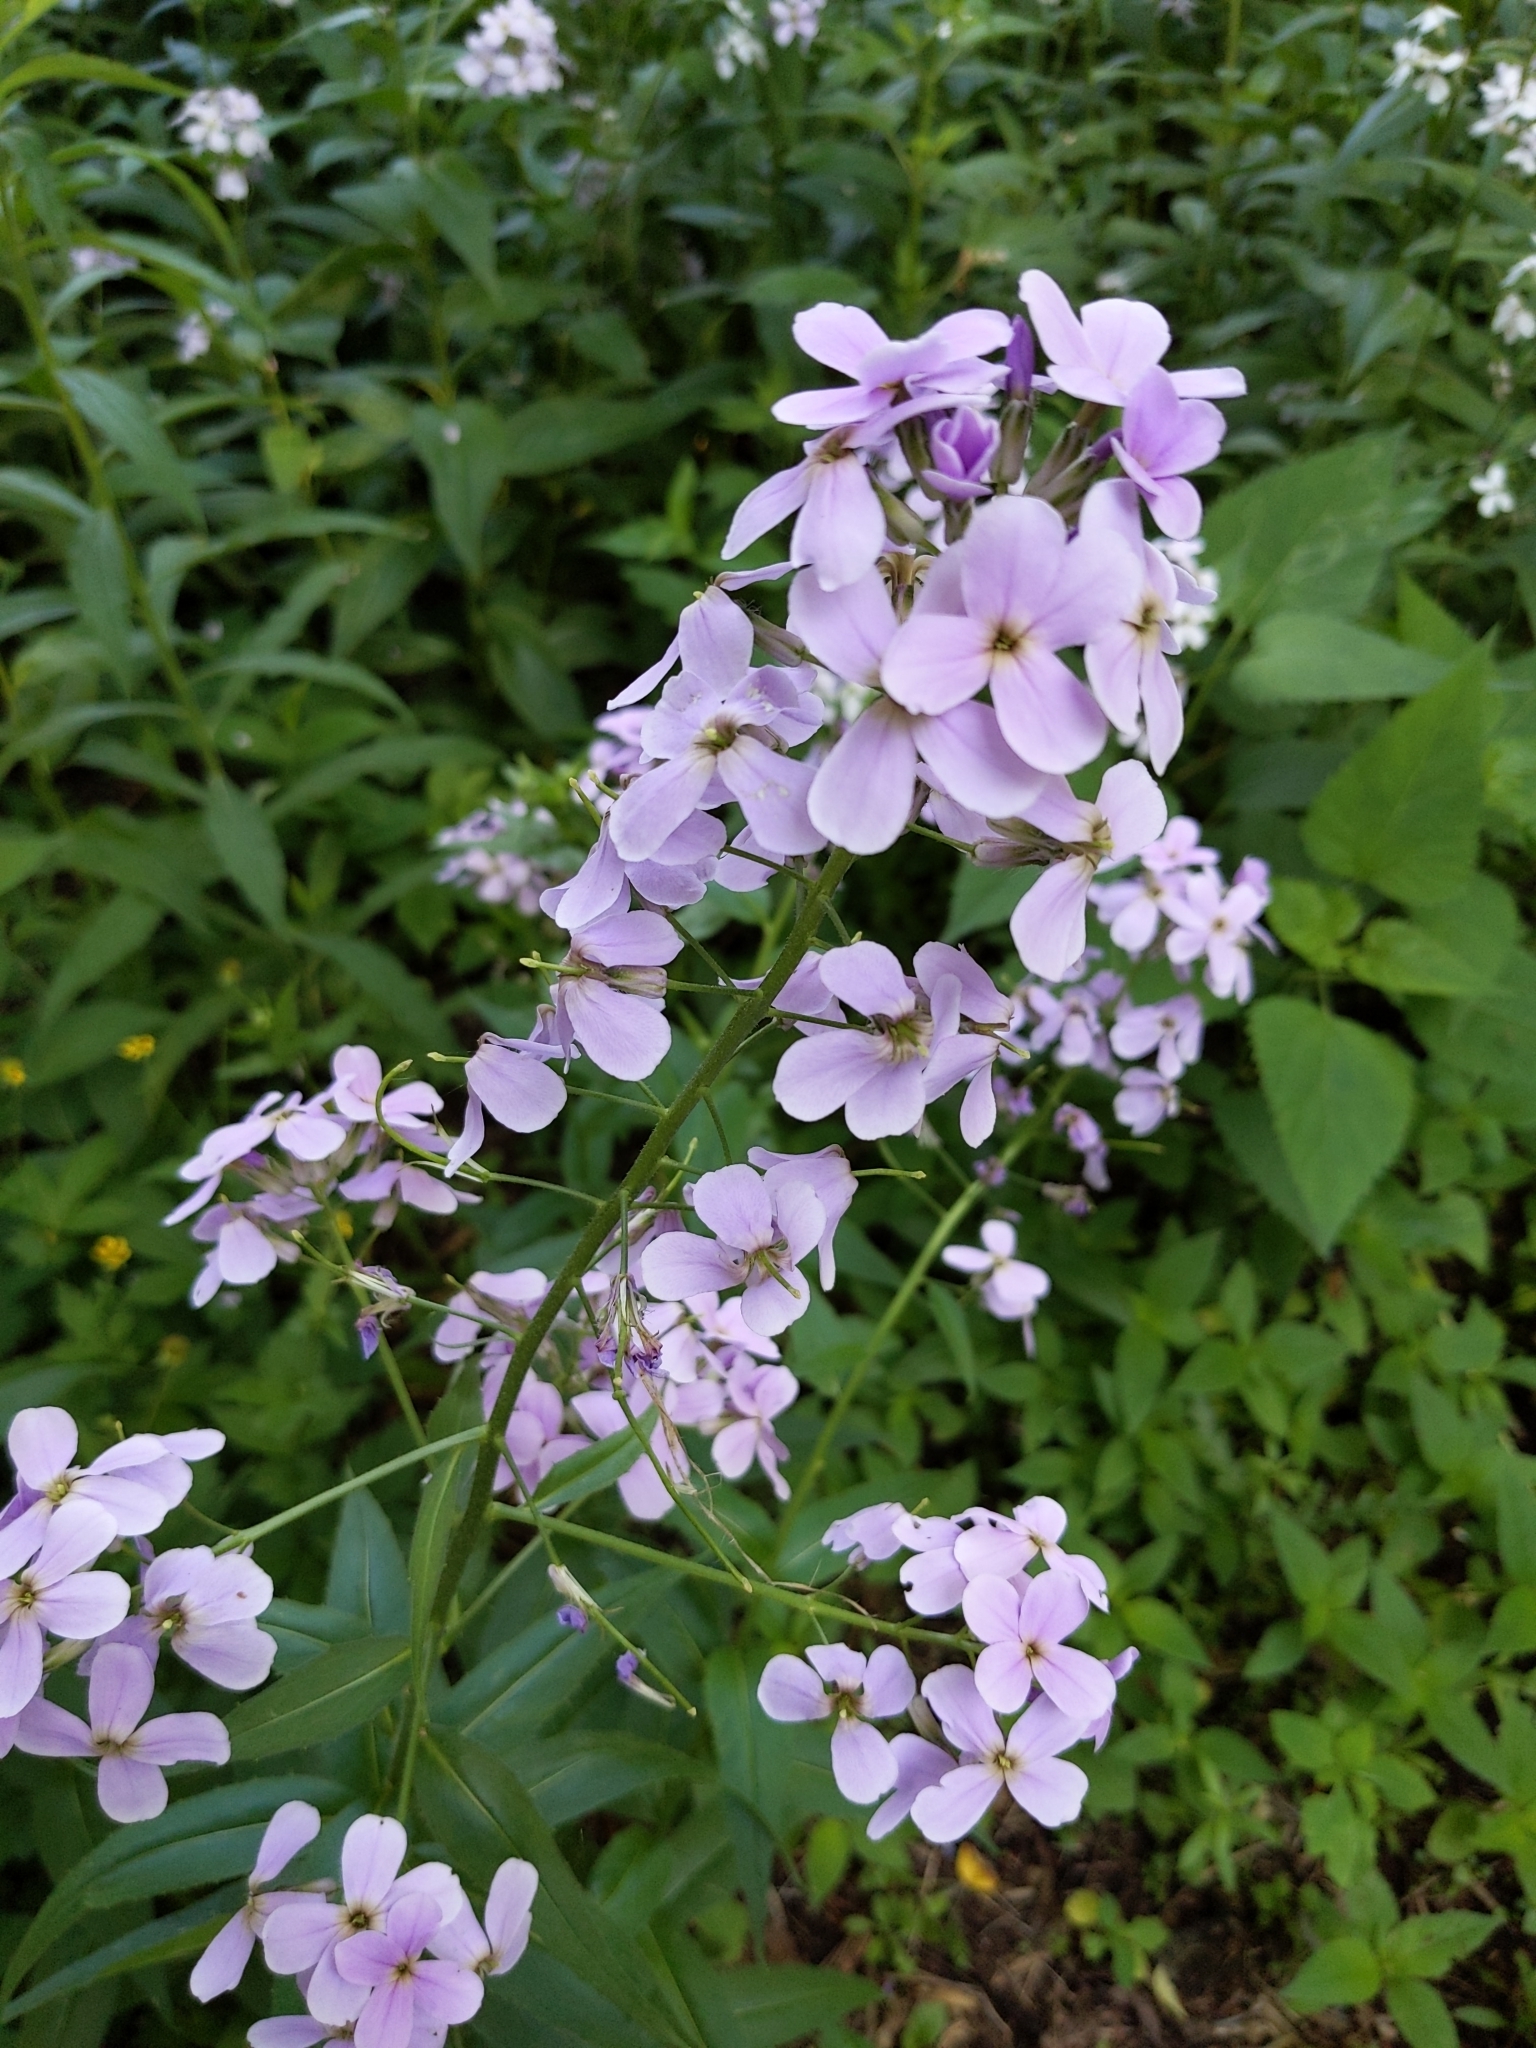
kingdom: Plantae
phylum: Tracheophyta
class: Magnoliopsida
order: Brassicales
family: Brassicaceae
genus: Hesperis
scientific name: Hesperis matronalis
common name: Dame's-violet
